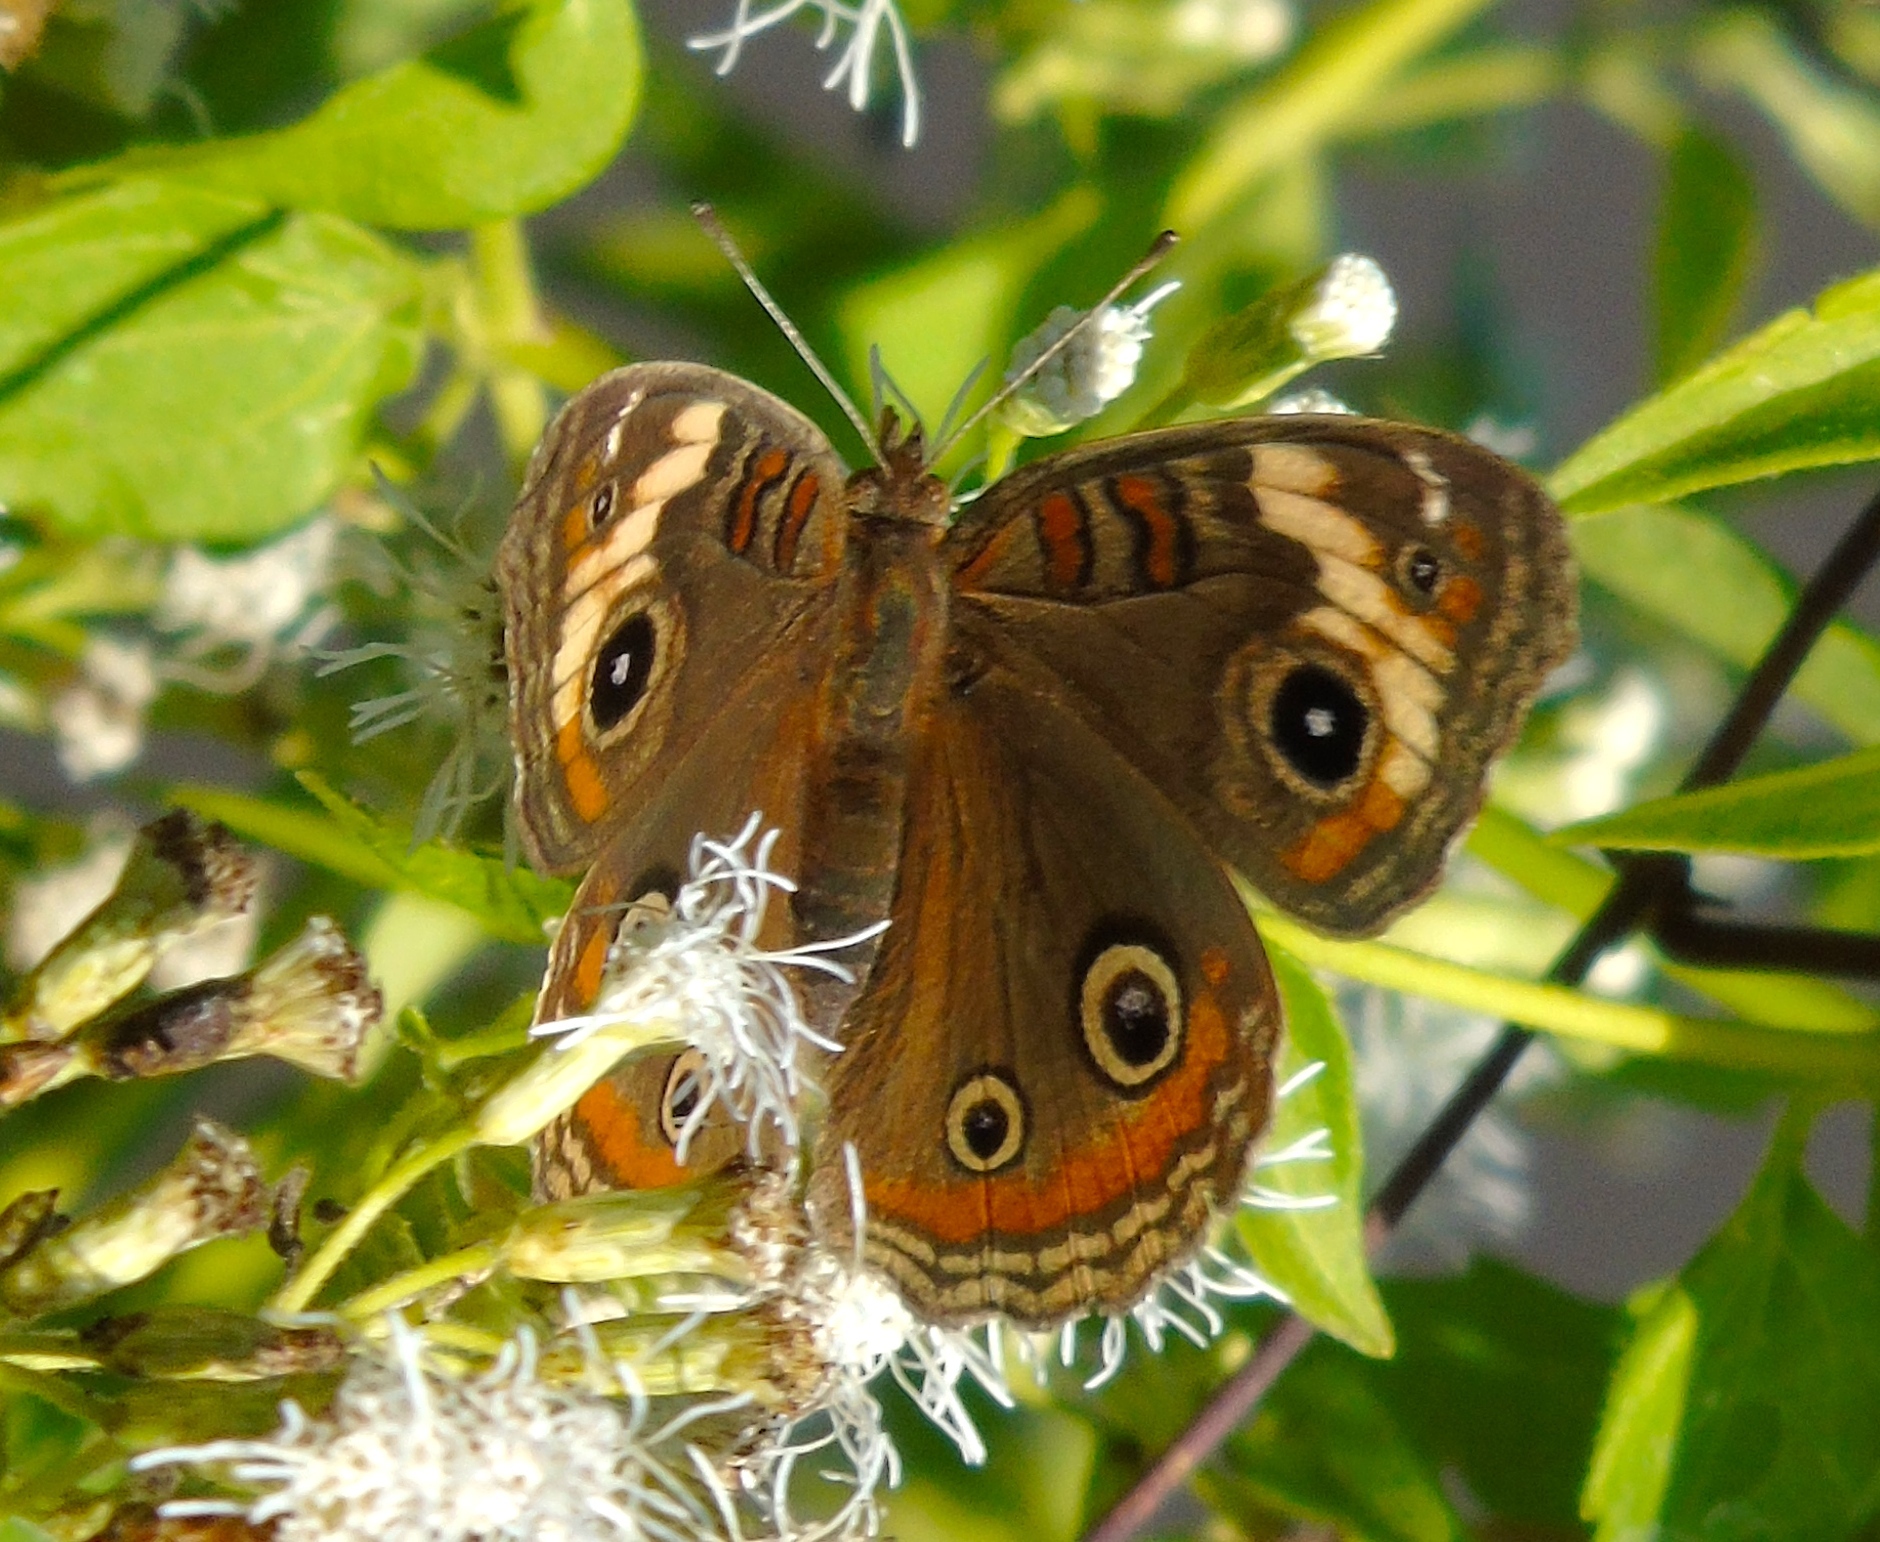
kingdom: Animalia
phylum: Arthropoda
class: Insecta
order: Lepidoptera
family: Nymphalidae
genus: Junonia
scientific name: Junonia pacoma
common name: Pacific mangrove buckeye
